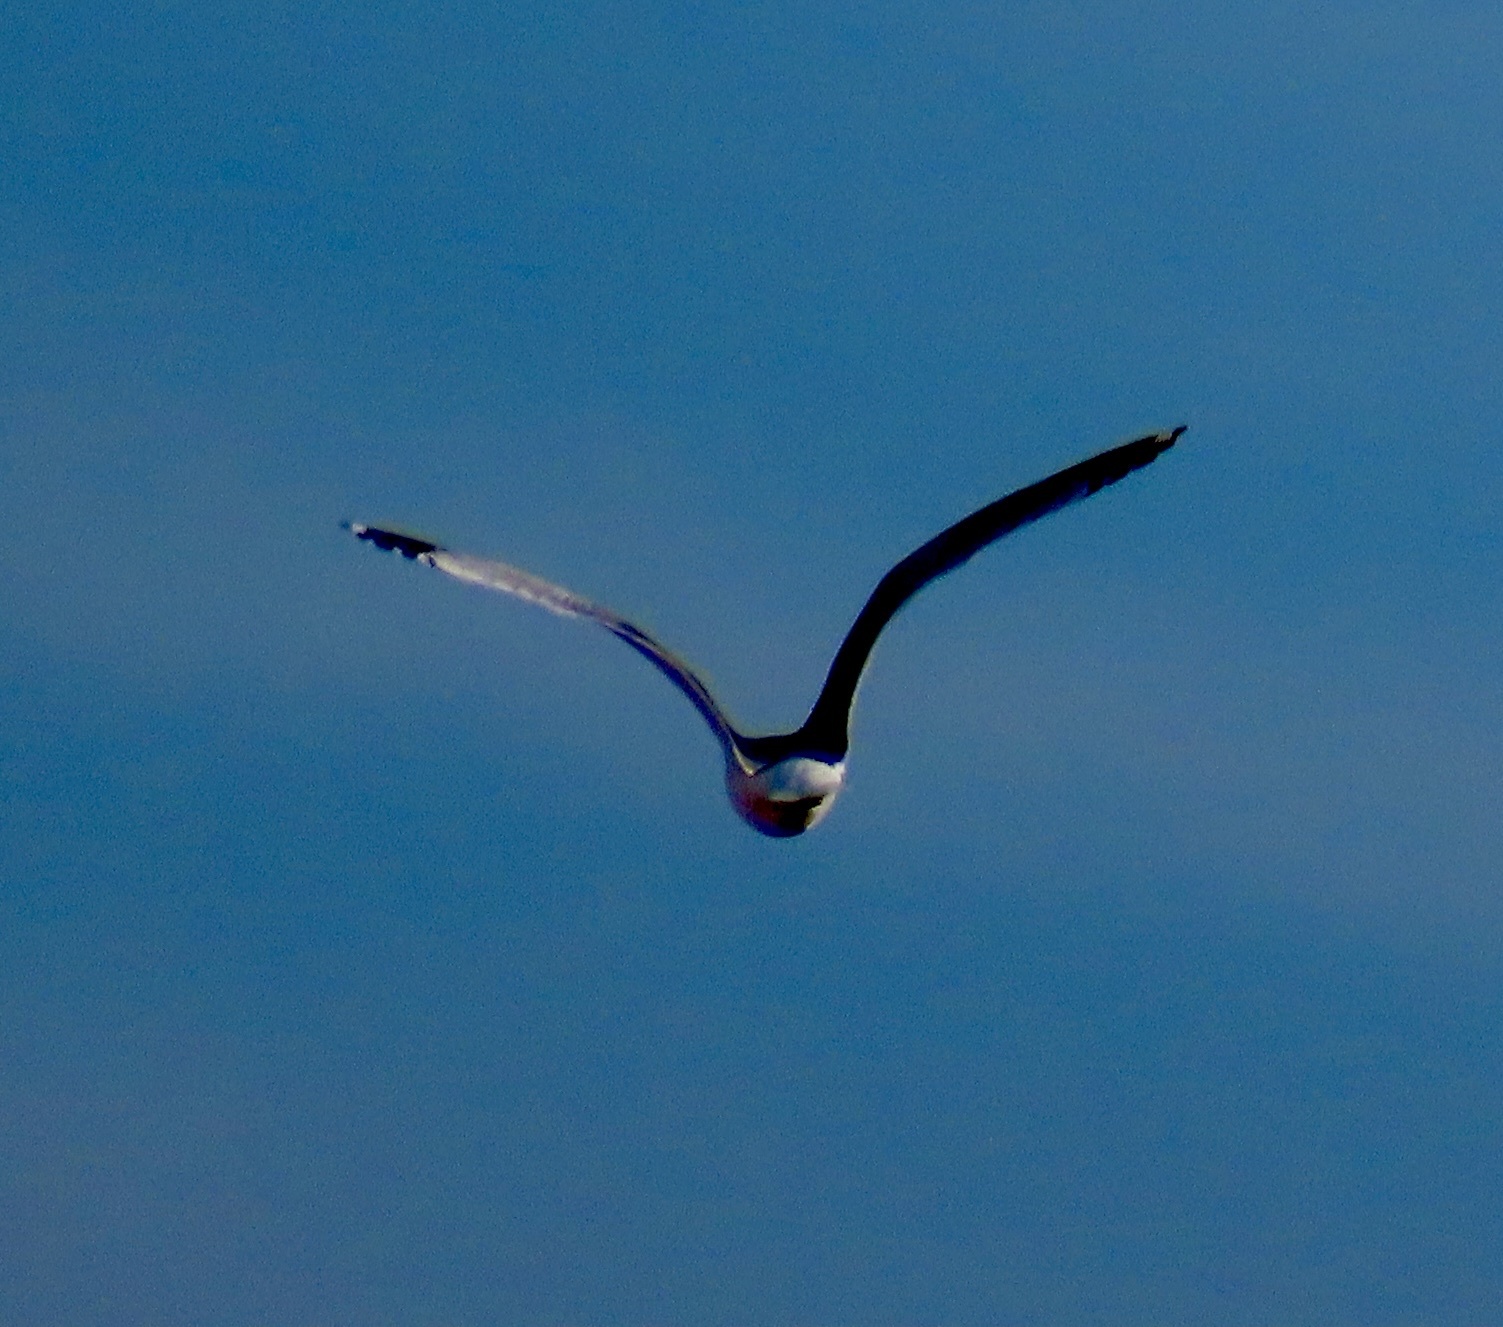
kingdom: Animalia
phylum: Chordata
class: Aves
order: Charadriiformes
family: Laridae
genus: Larus
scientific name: Larus delawarensis
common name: Ring-billed gull
